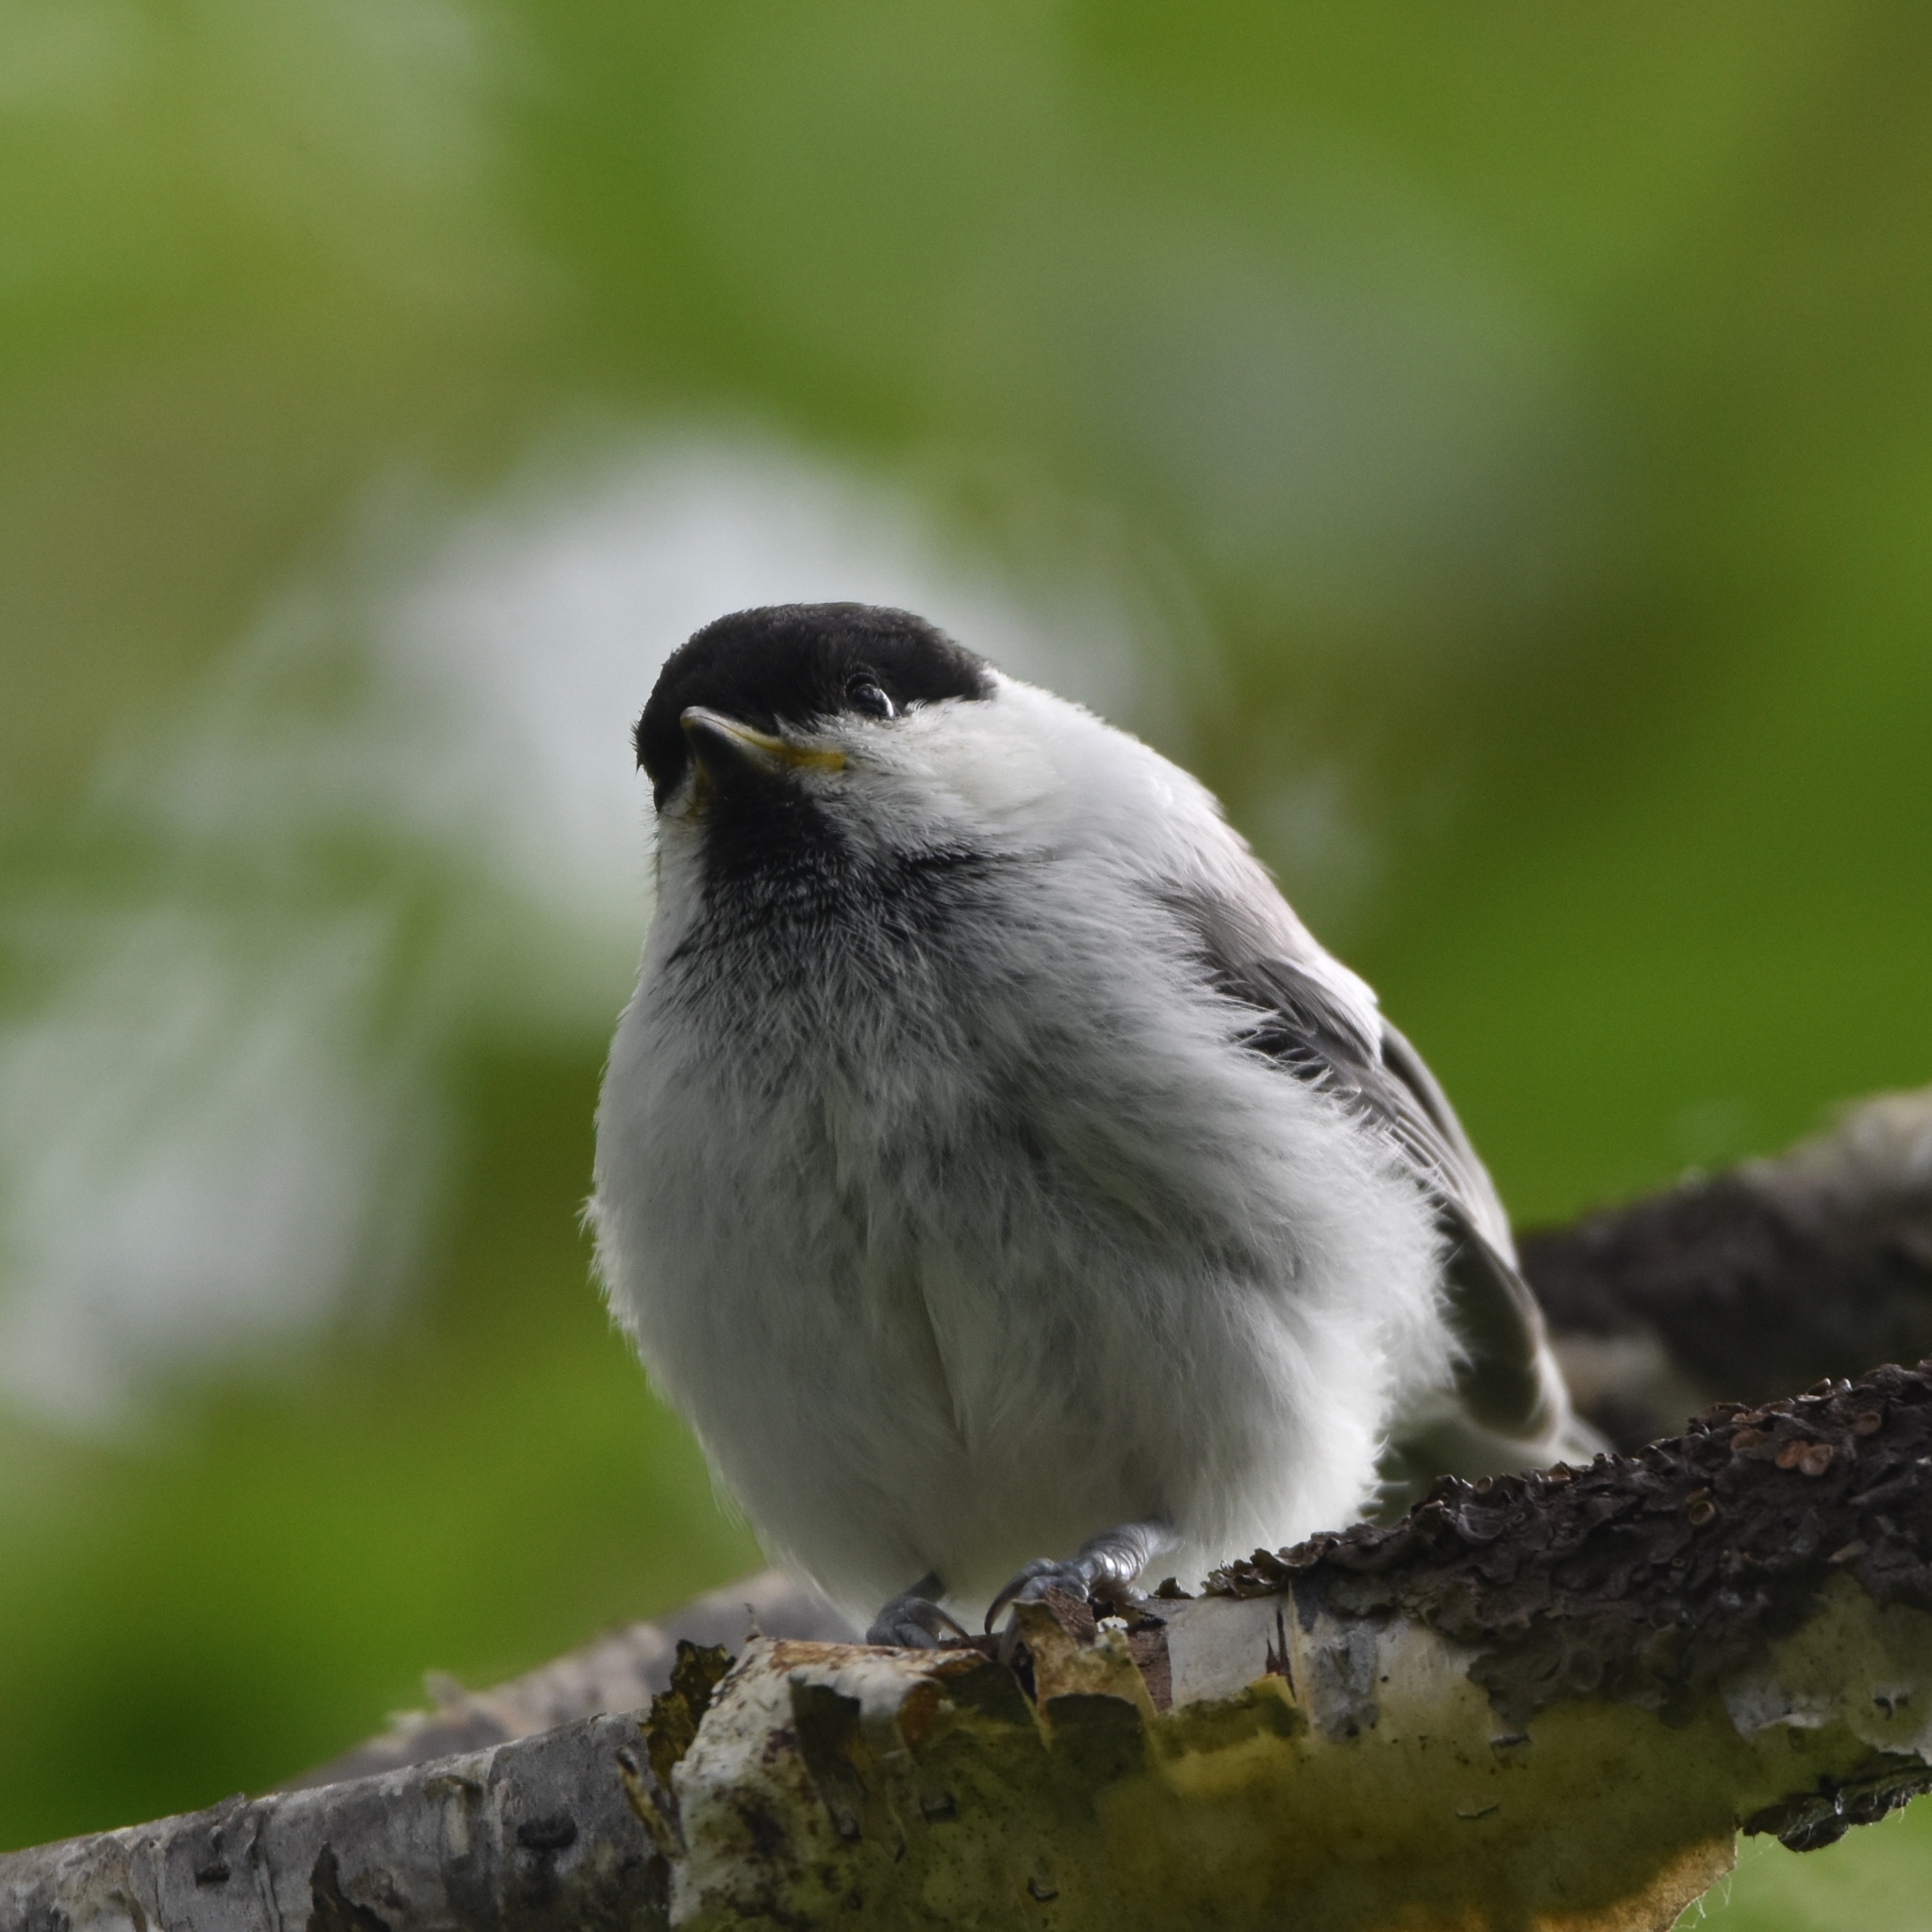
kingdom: Animalia
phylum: Chordata
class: Aves
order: Passeriformes
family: Paridae
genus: Poecile
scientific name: Poecile montanus
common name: Willow tit
